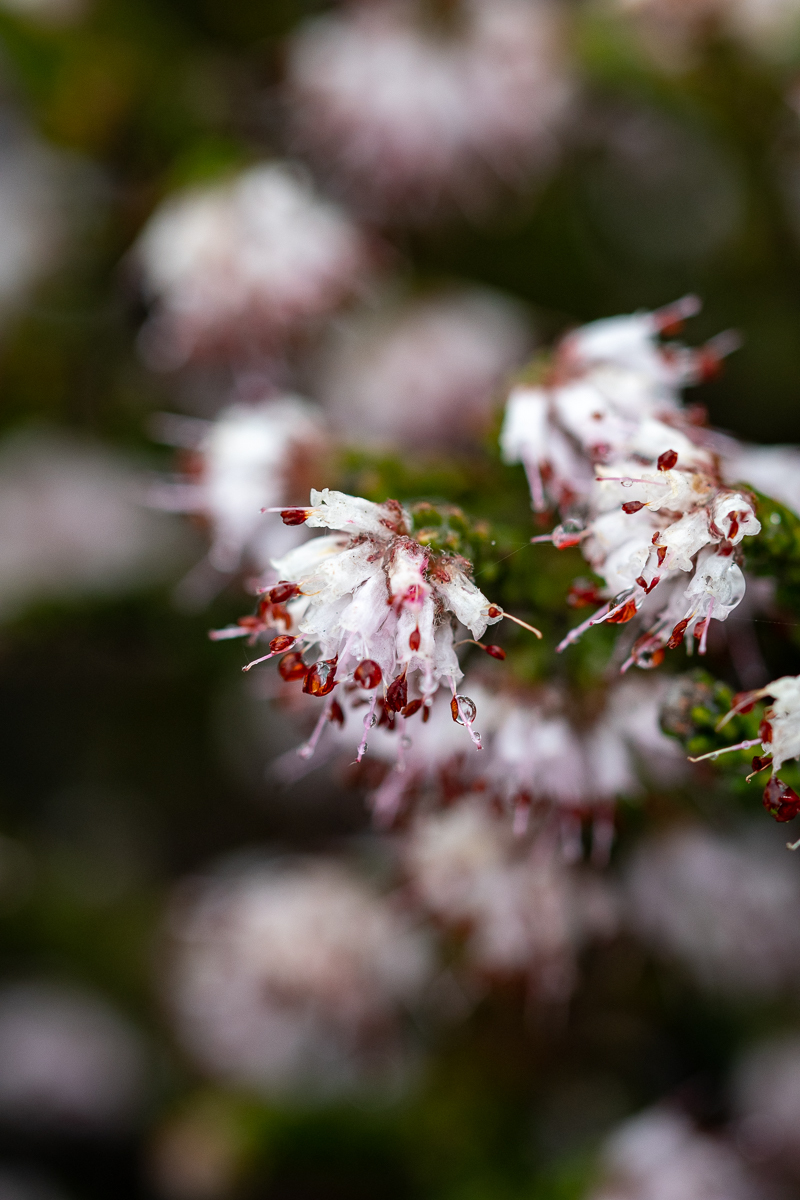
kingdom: Plantae
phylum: Tracheophyta
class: Magnoliopsida
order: Ericales
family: Ericaceae
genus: Erica
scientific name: Erica ericoides
